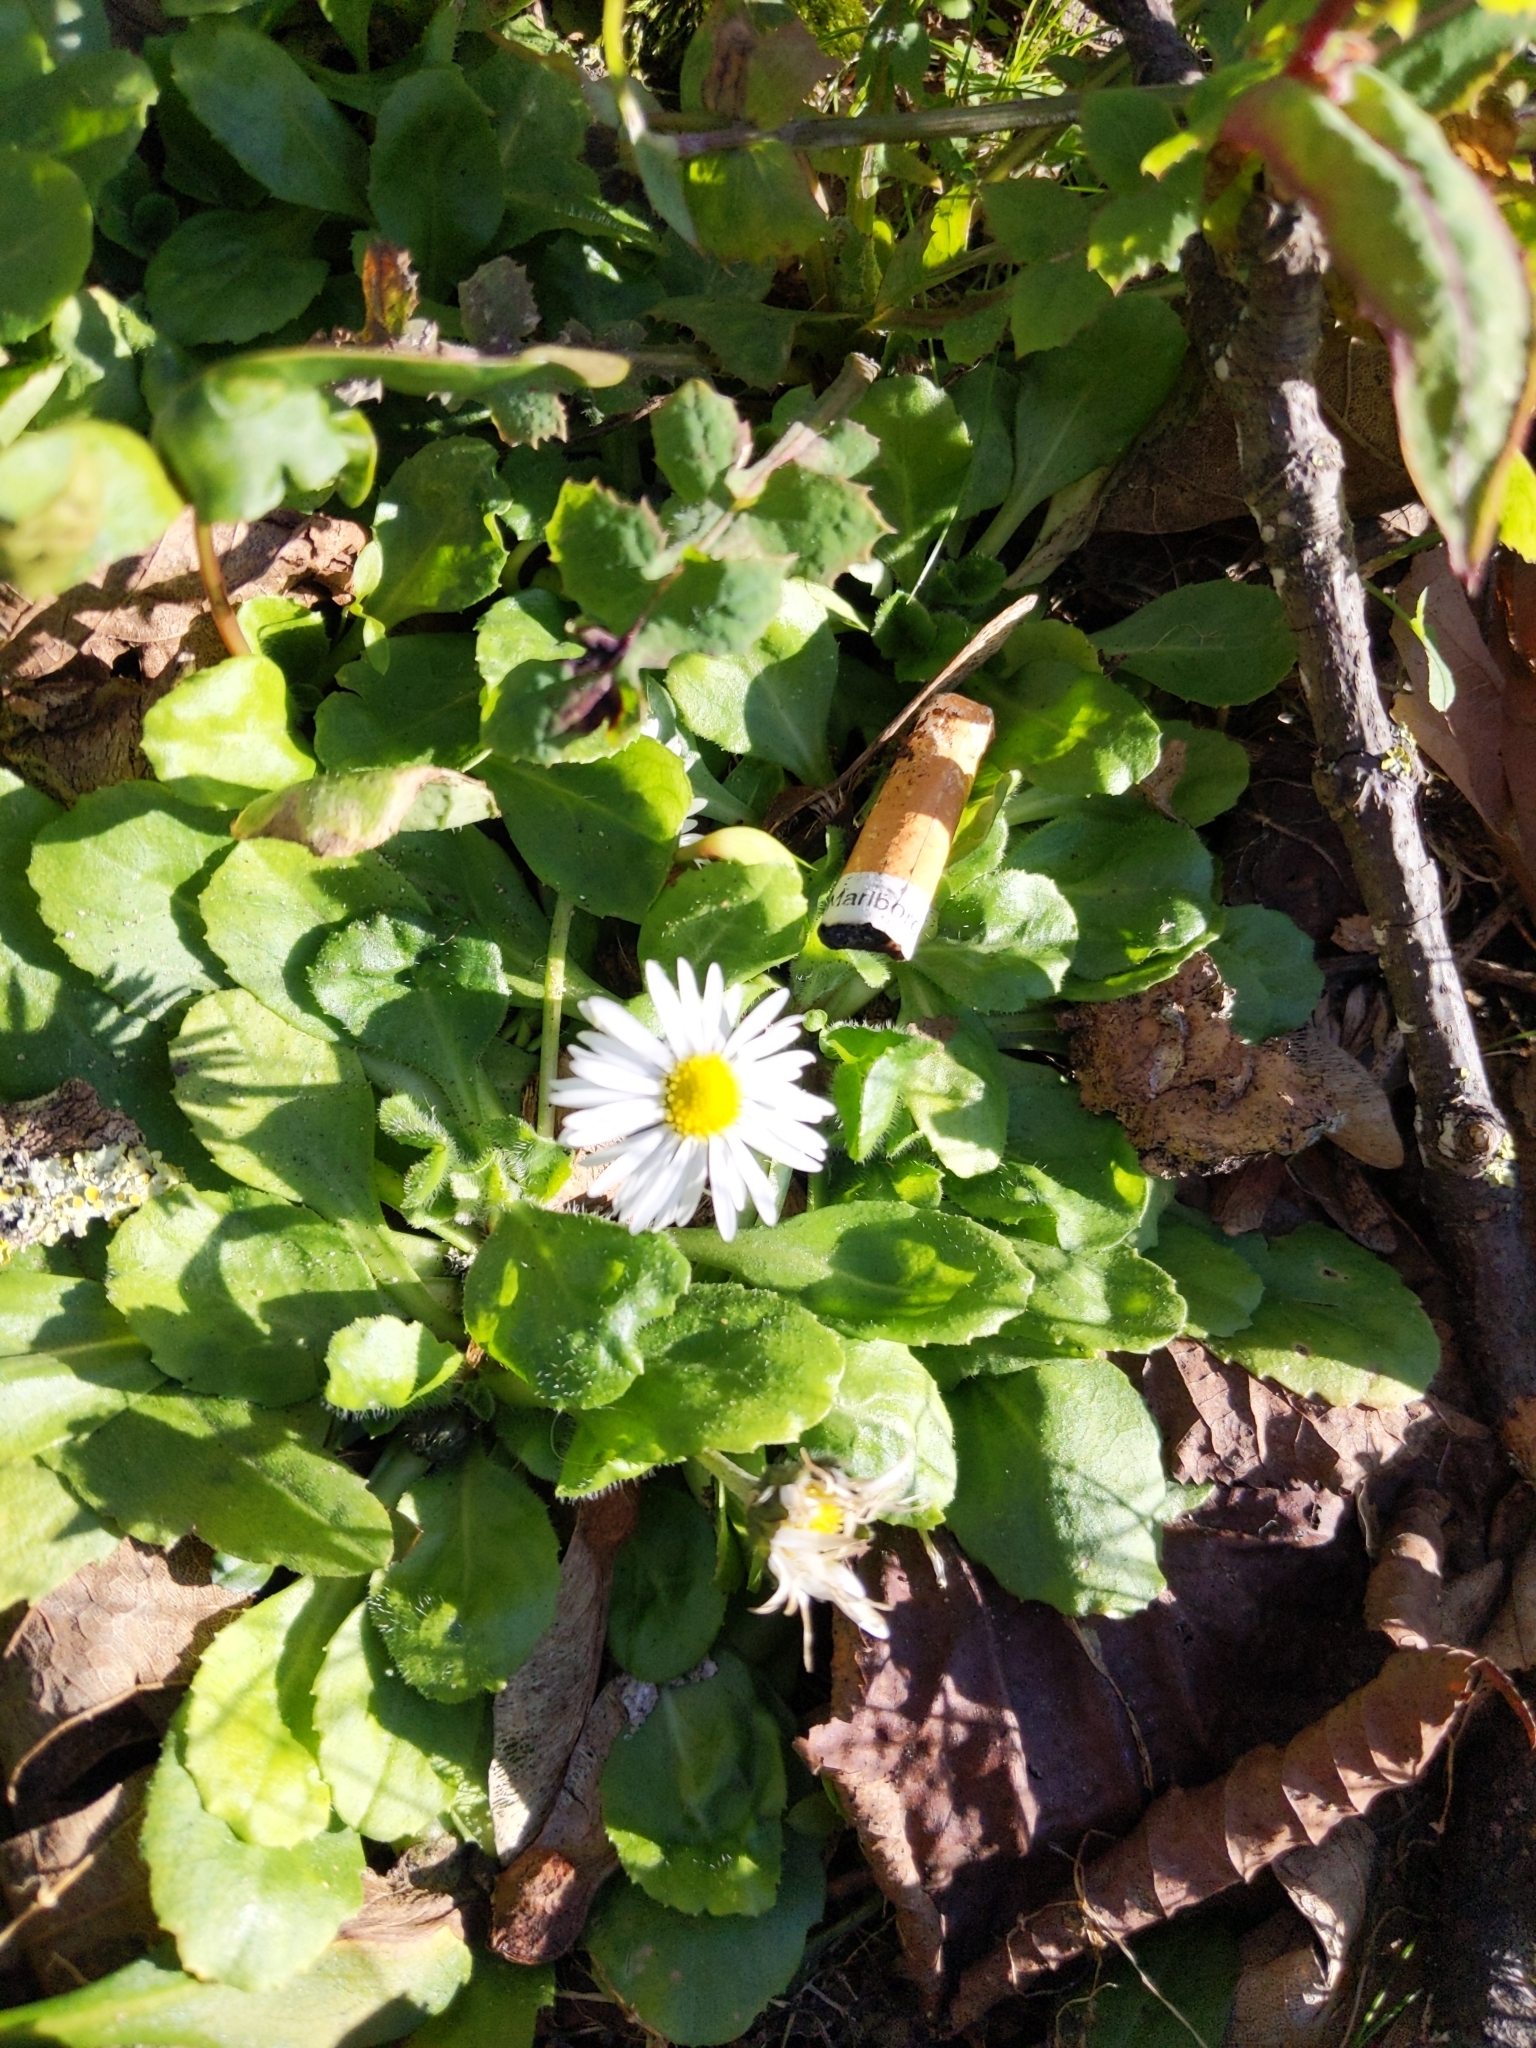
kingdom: Plantae
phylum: Tracheophyta
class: Magnoliopsida
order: Asterales
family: Asteraceae
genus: Bellis
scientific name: Bellis perennis
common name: Lawndaisy
